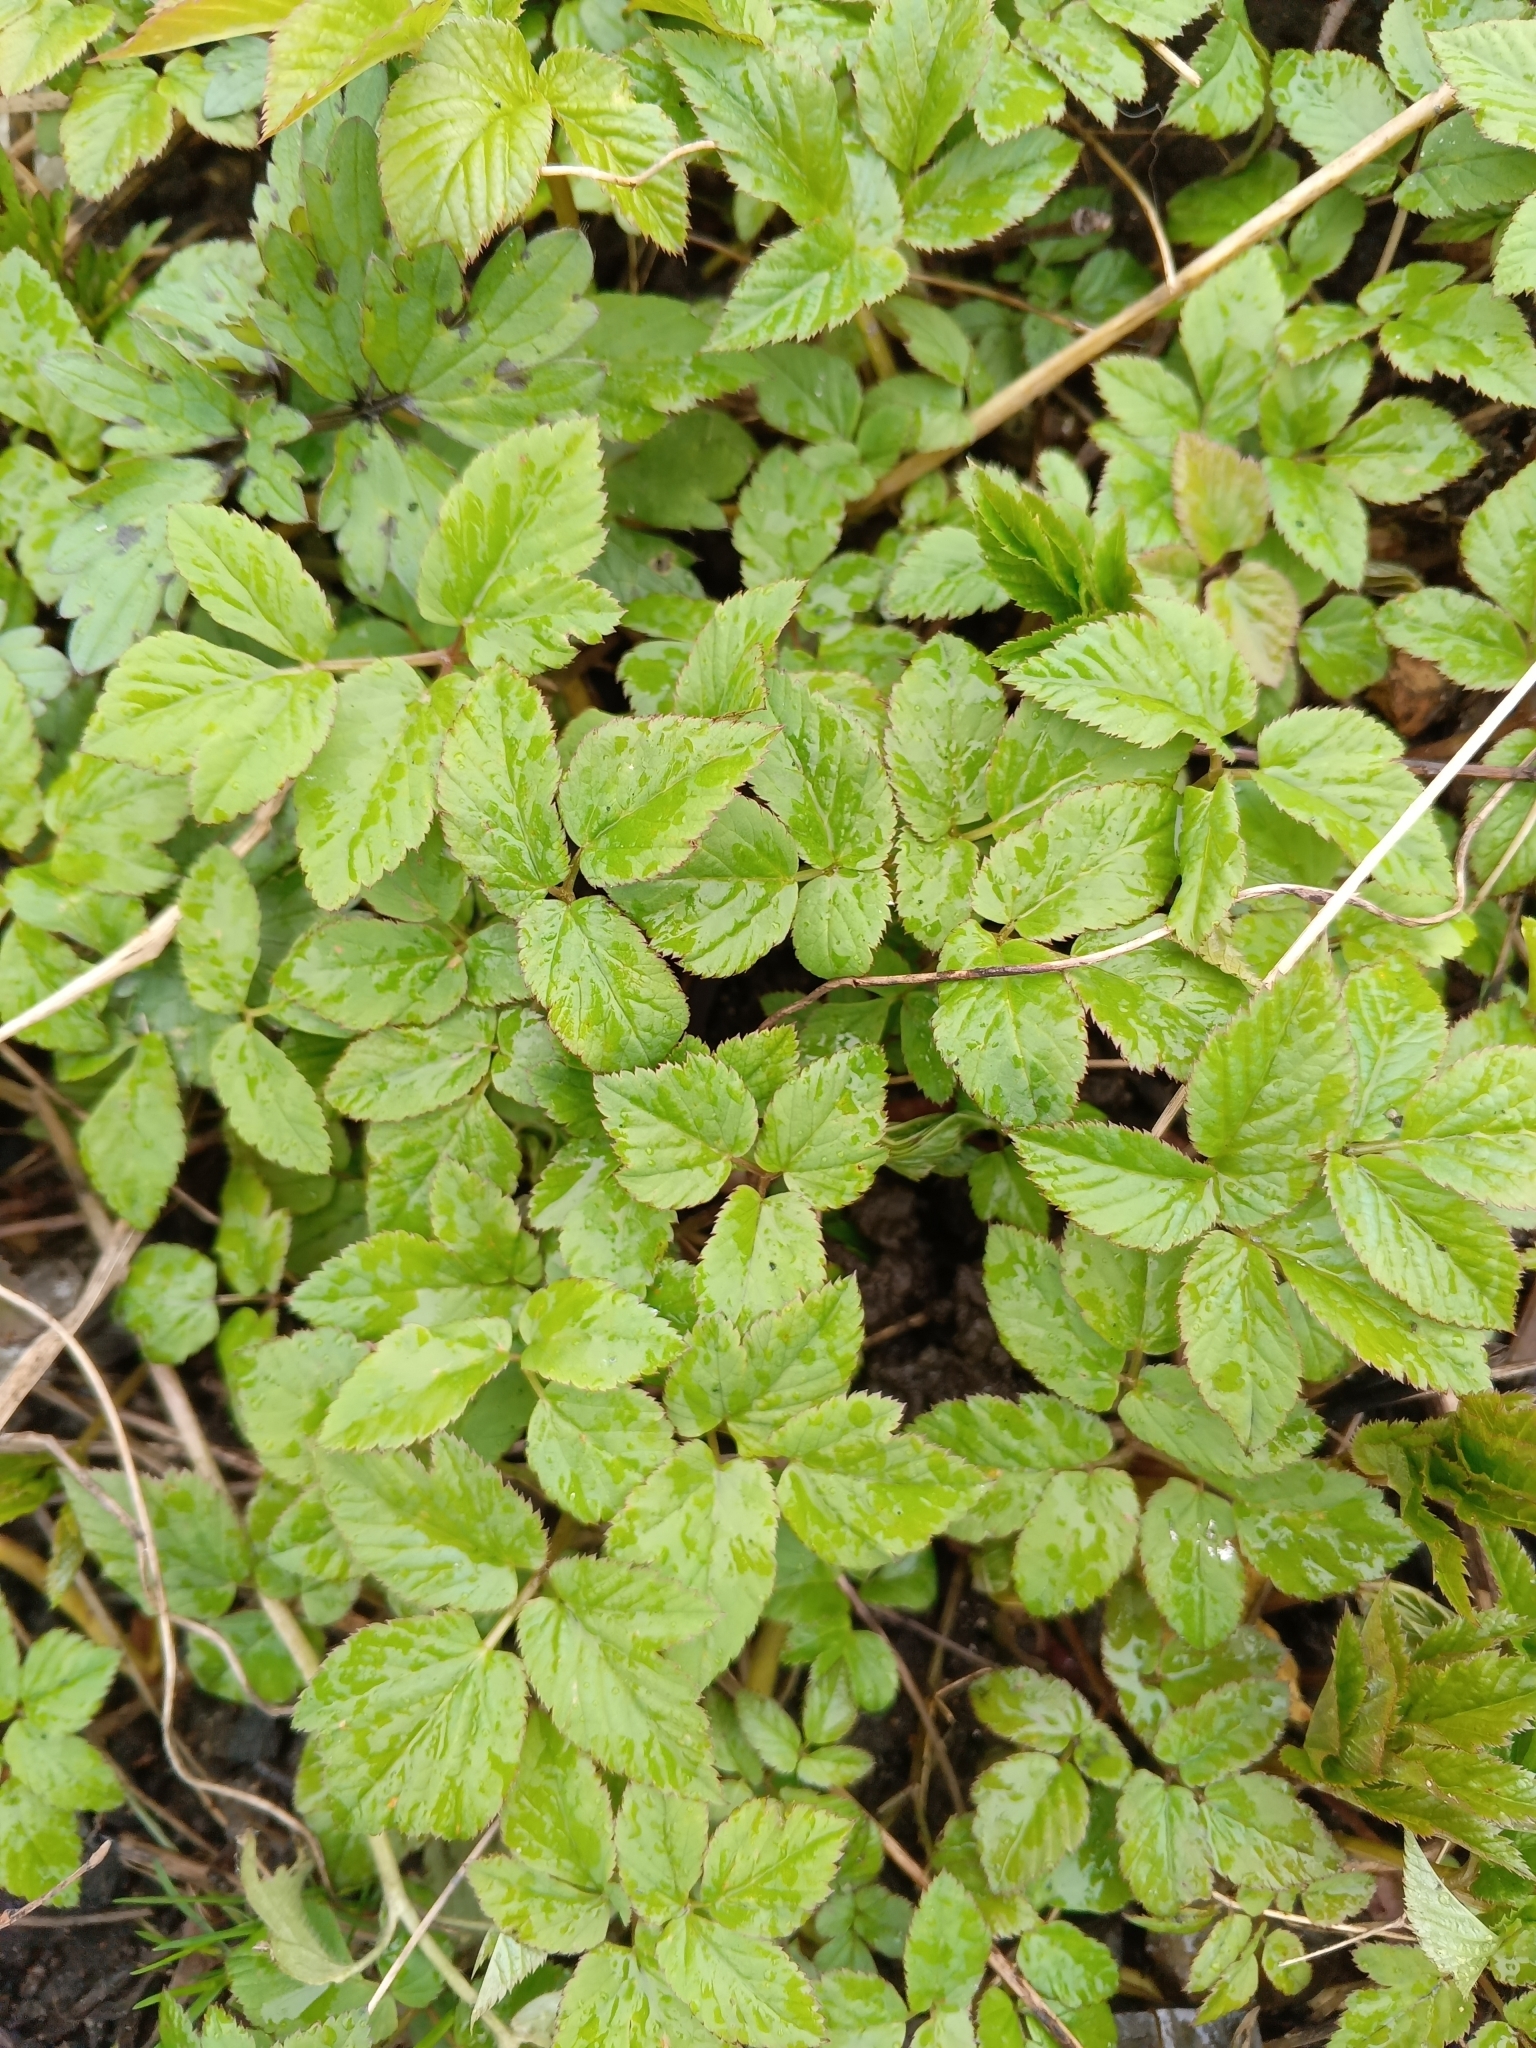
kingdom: Plantae
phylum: Tracheophyta
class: Magnoliopsida
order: Apiales
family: Apiaceae
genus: Aegopodium
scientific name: Aegopodium podagraria
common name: Ground-elder
